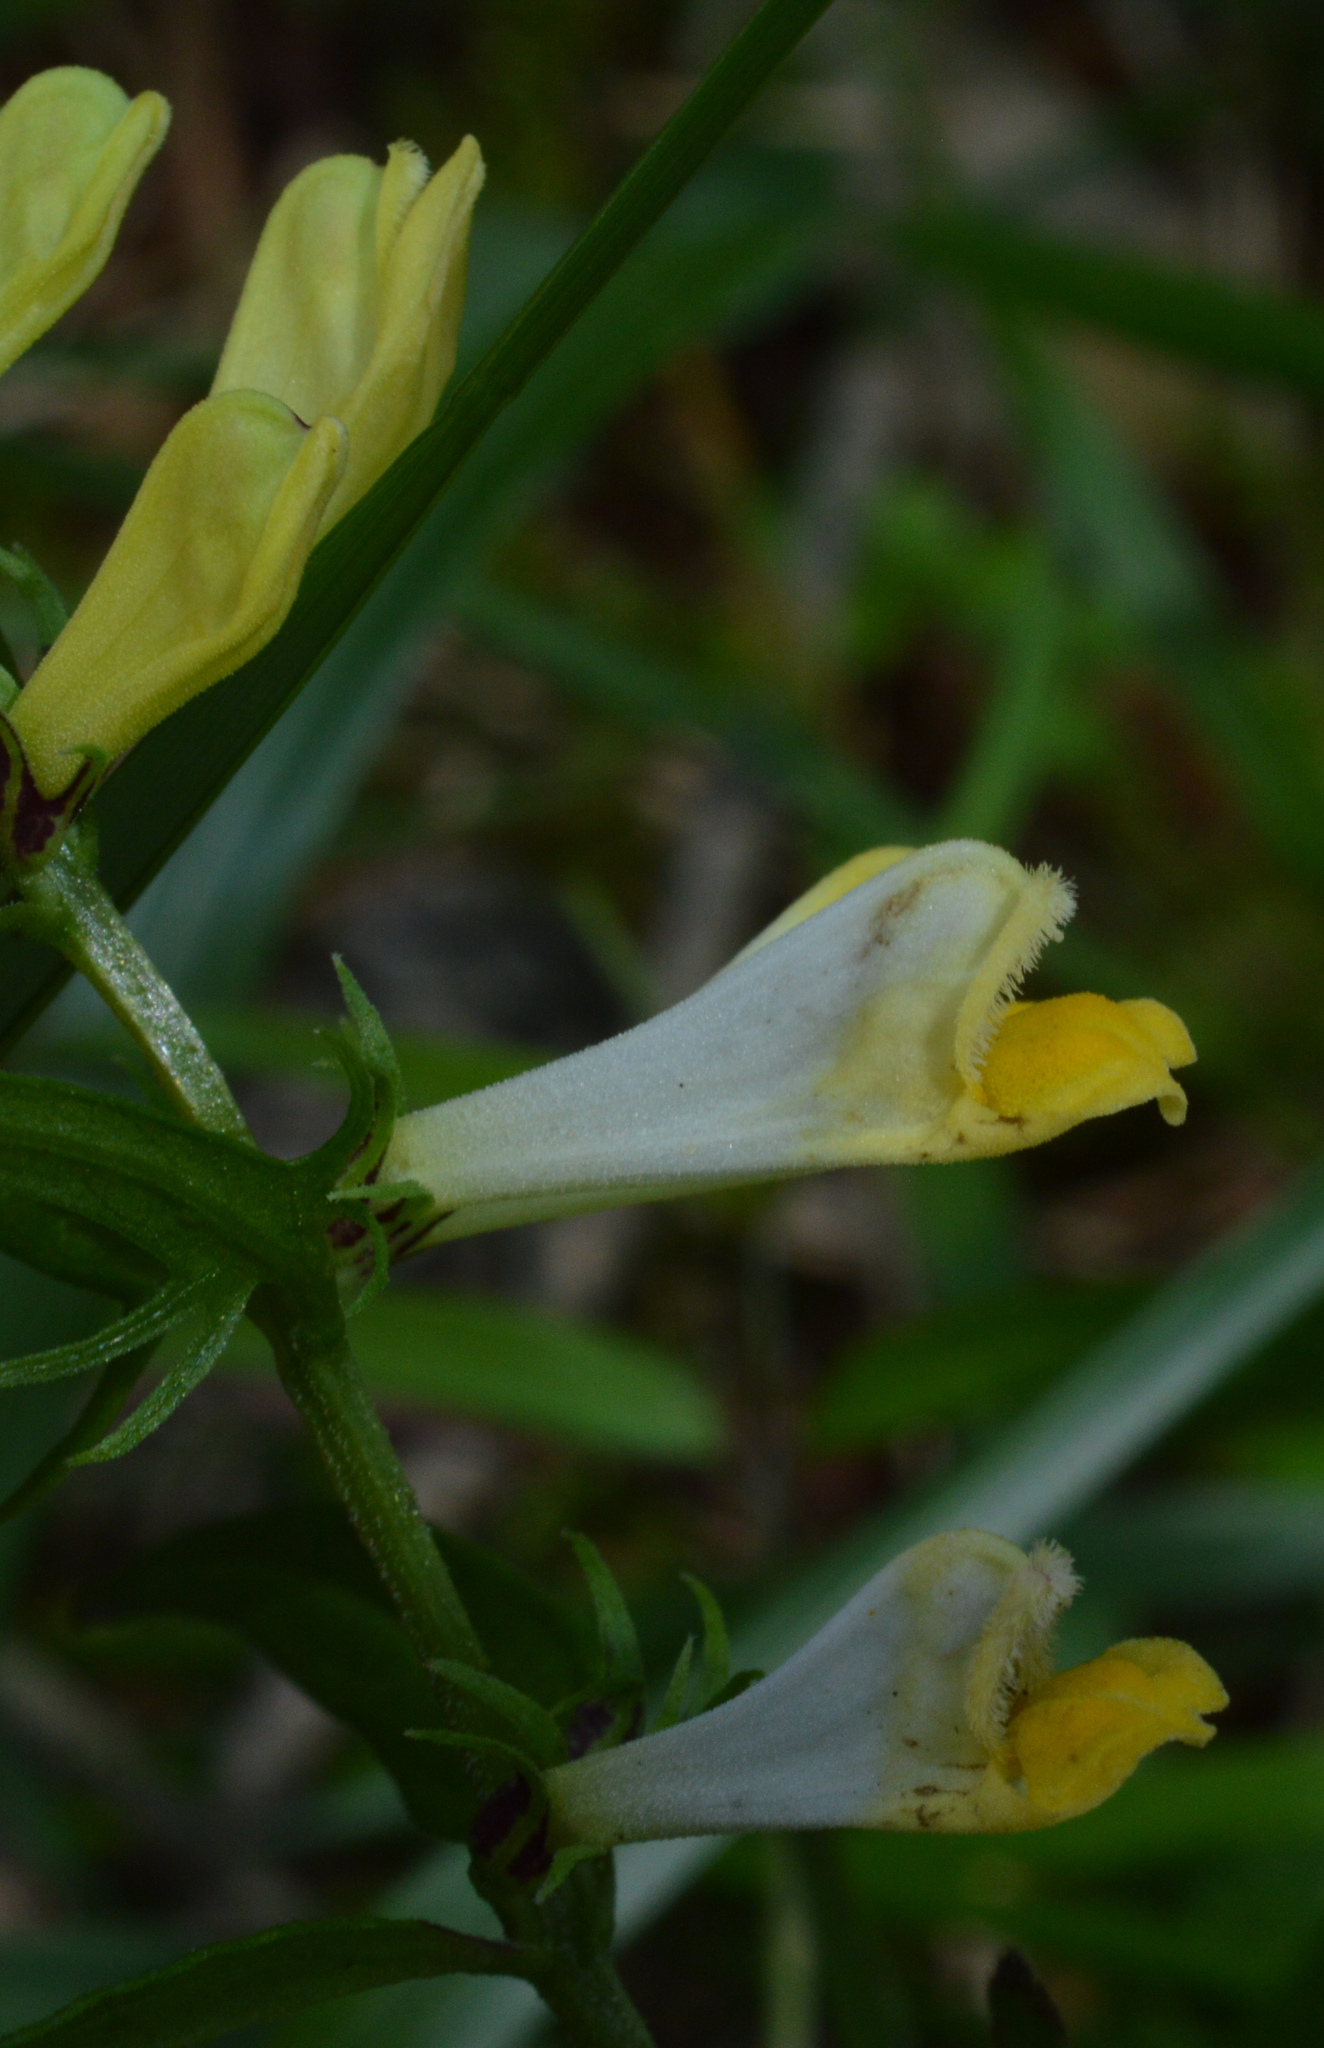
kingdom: Plantae
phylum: Tracheophyta
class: Magnoliopsida
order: Lamiales
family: Orobanchaceae
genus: Melampyrum
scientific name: Melampyrum pratense
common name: Common cow-wheat
